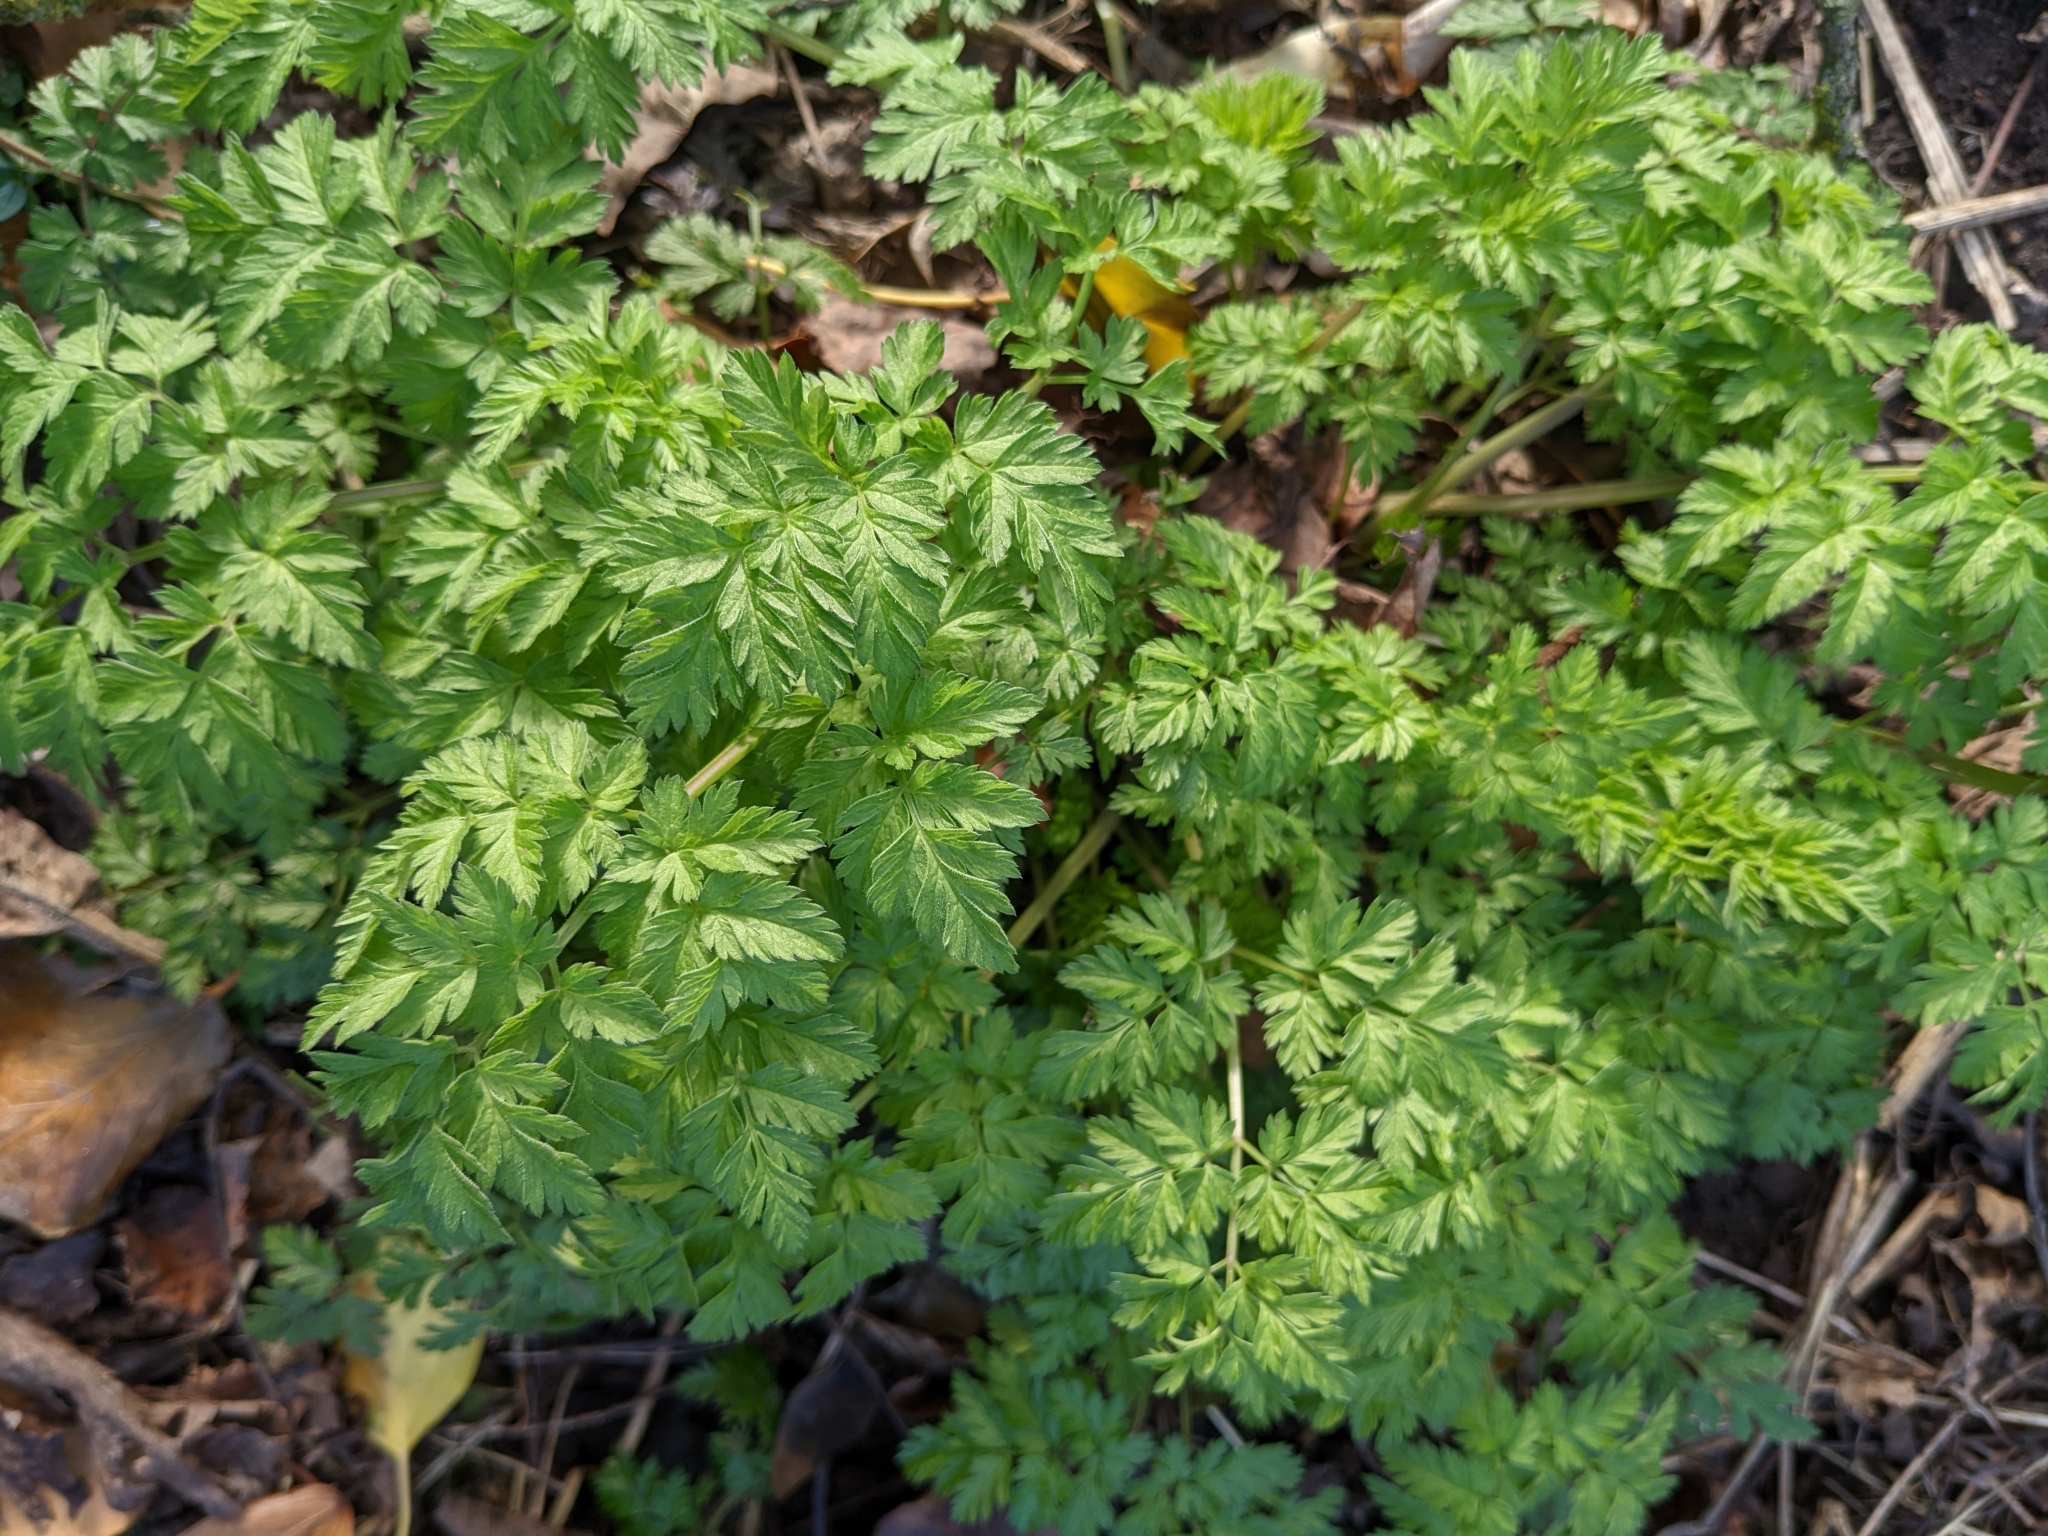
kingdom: Plantae
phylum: Tracheophyta
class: Magnoliopsida
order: Apiales
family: Apiaceae
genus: Anthriscus
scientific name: Anthriscus sylvestris
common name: Cow parsley
